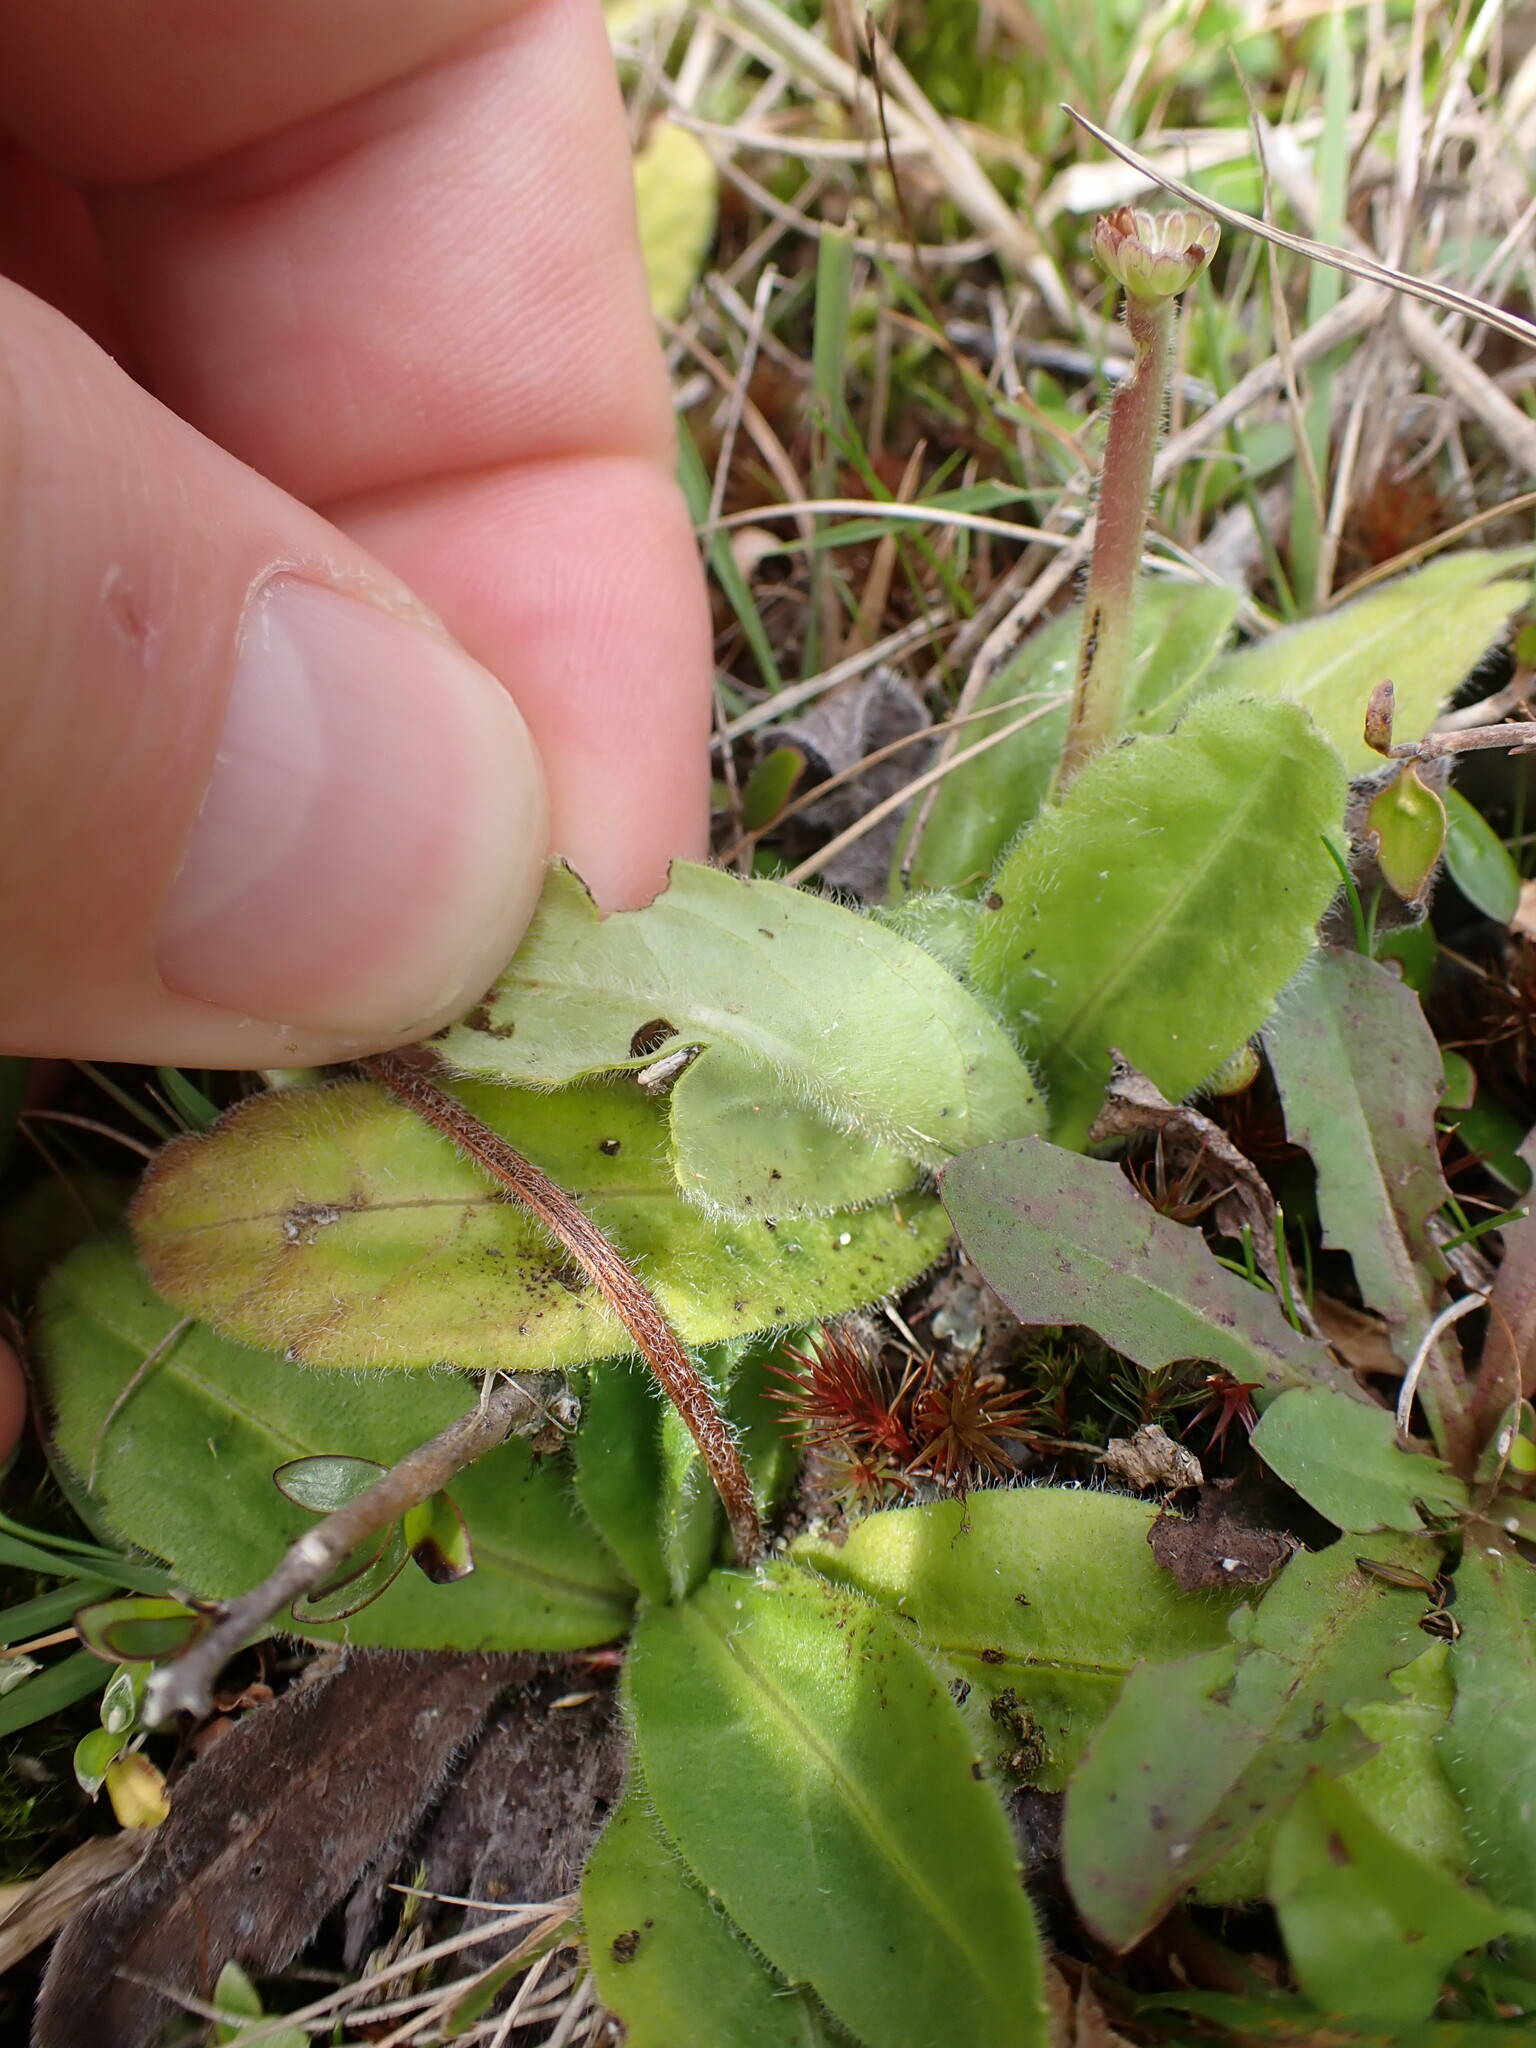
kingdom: Plantae
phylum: Tracheophyta
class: Magnoliopsida
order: Lamiales
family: Plantaginaceae
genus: Plantago
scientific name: Plantago raoulii
